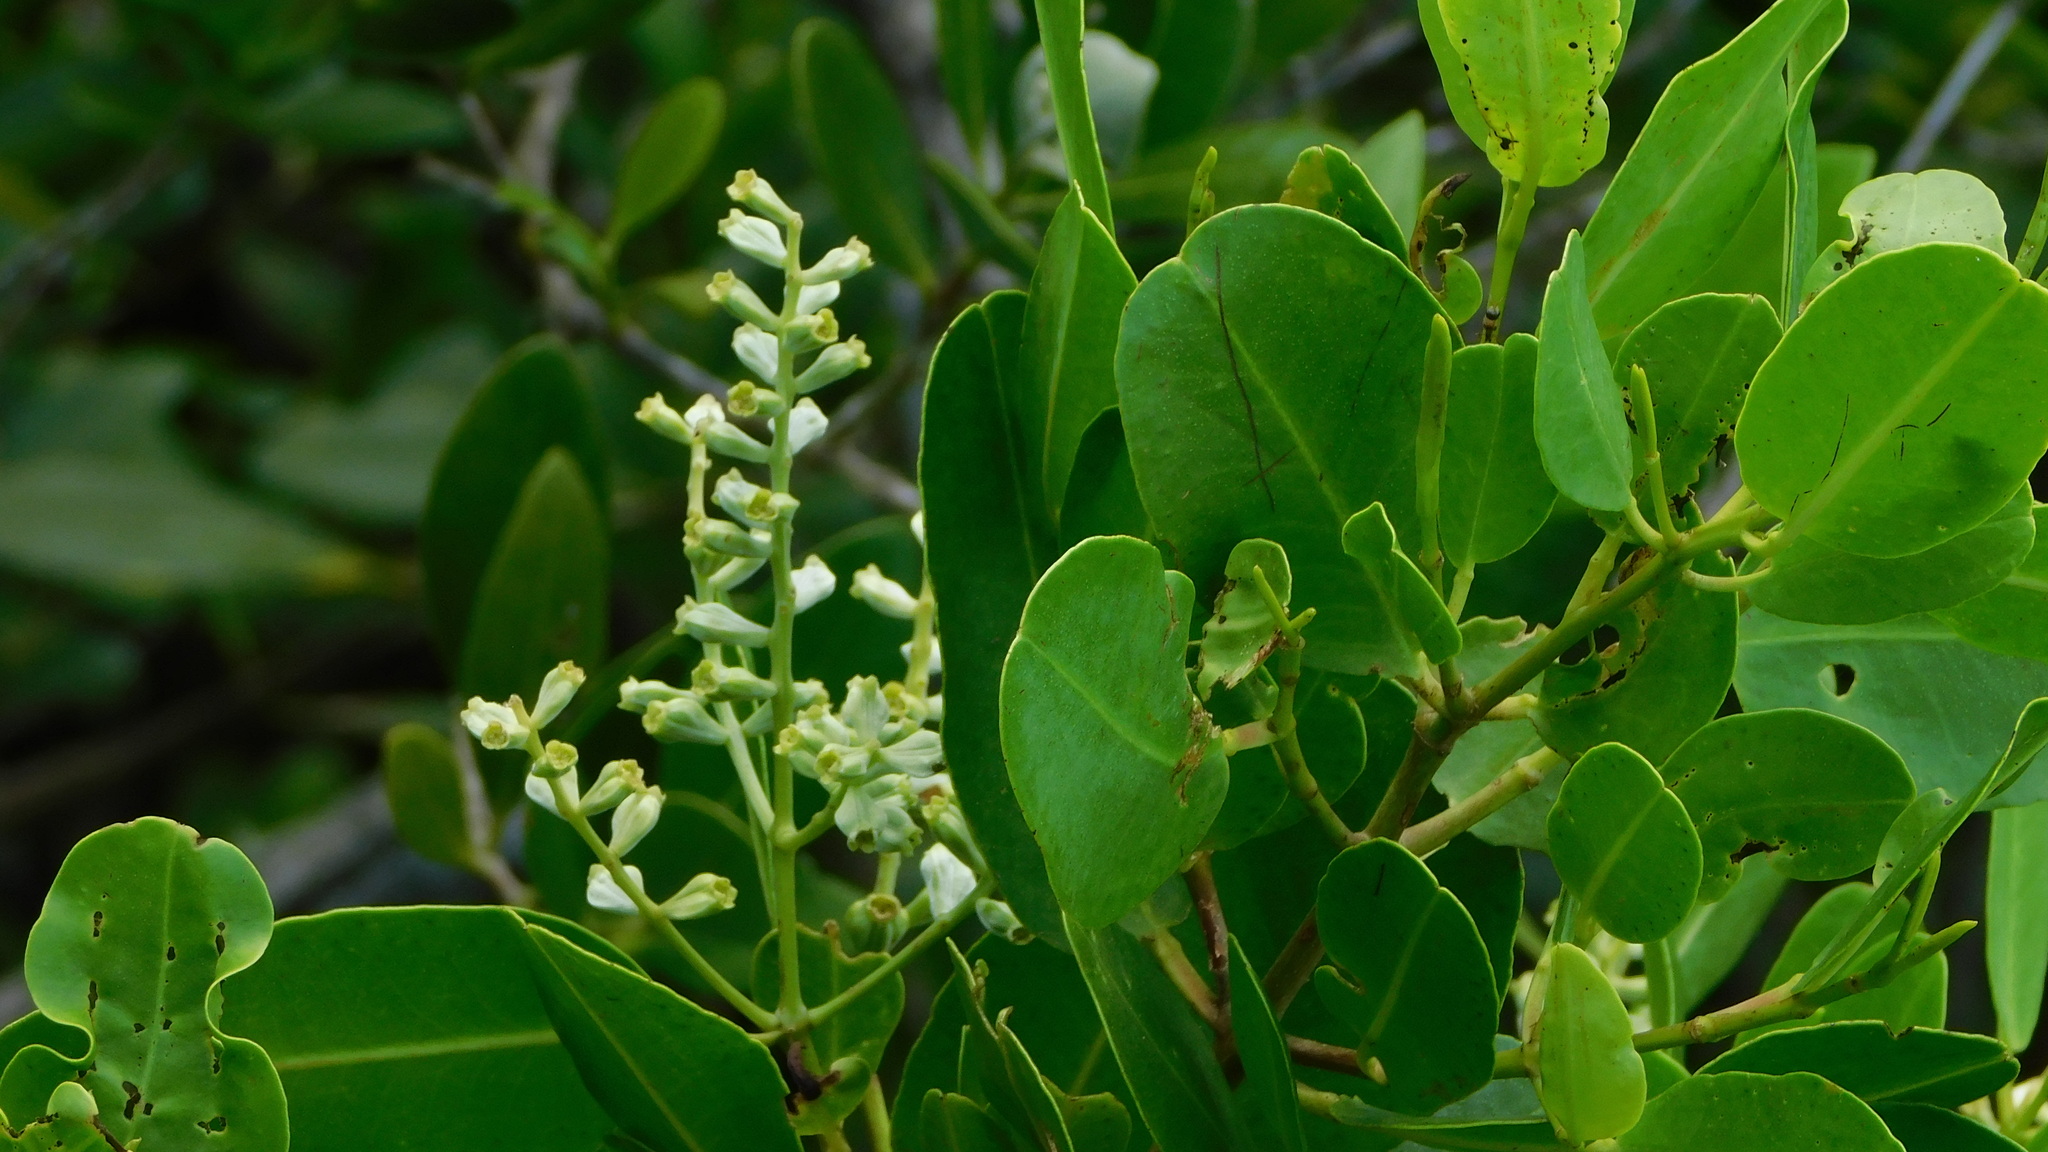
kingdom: Plantae
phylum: Tracheophyta
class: Magnoliopsida
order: Myrtales
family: Combretaceae
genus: Laguncularia
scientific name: Laguncularia racemosa
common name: White mangrove
